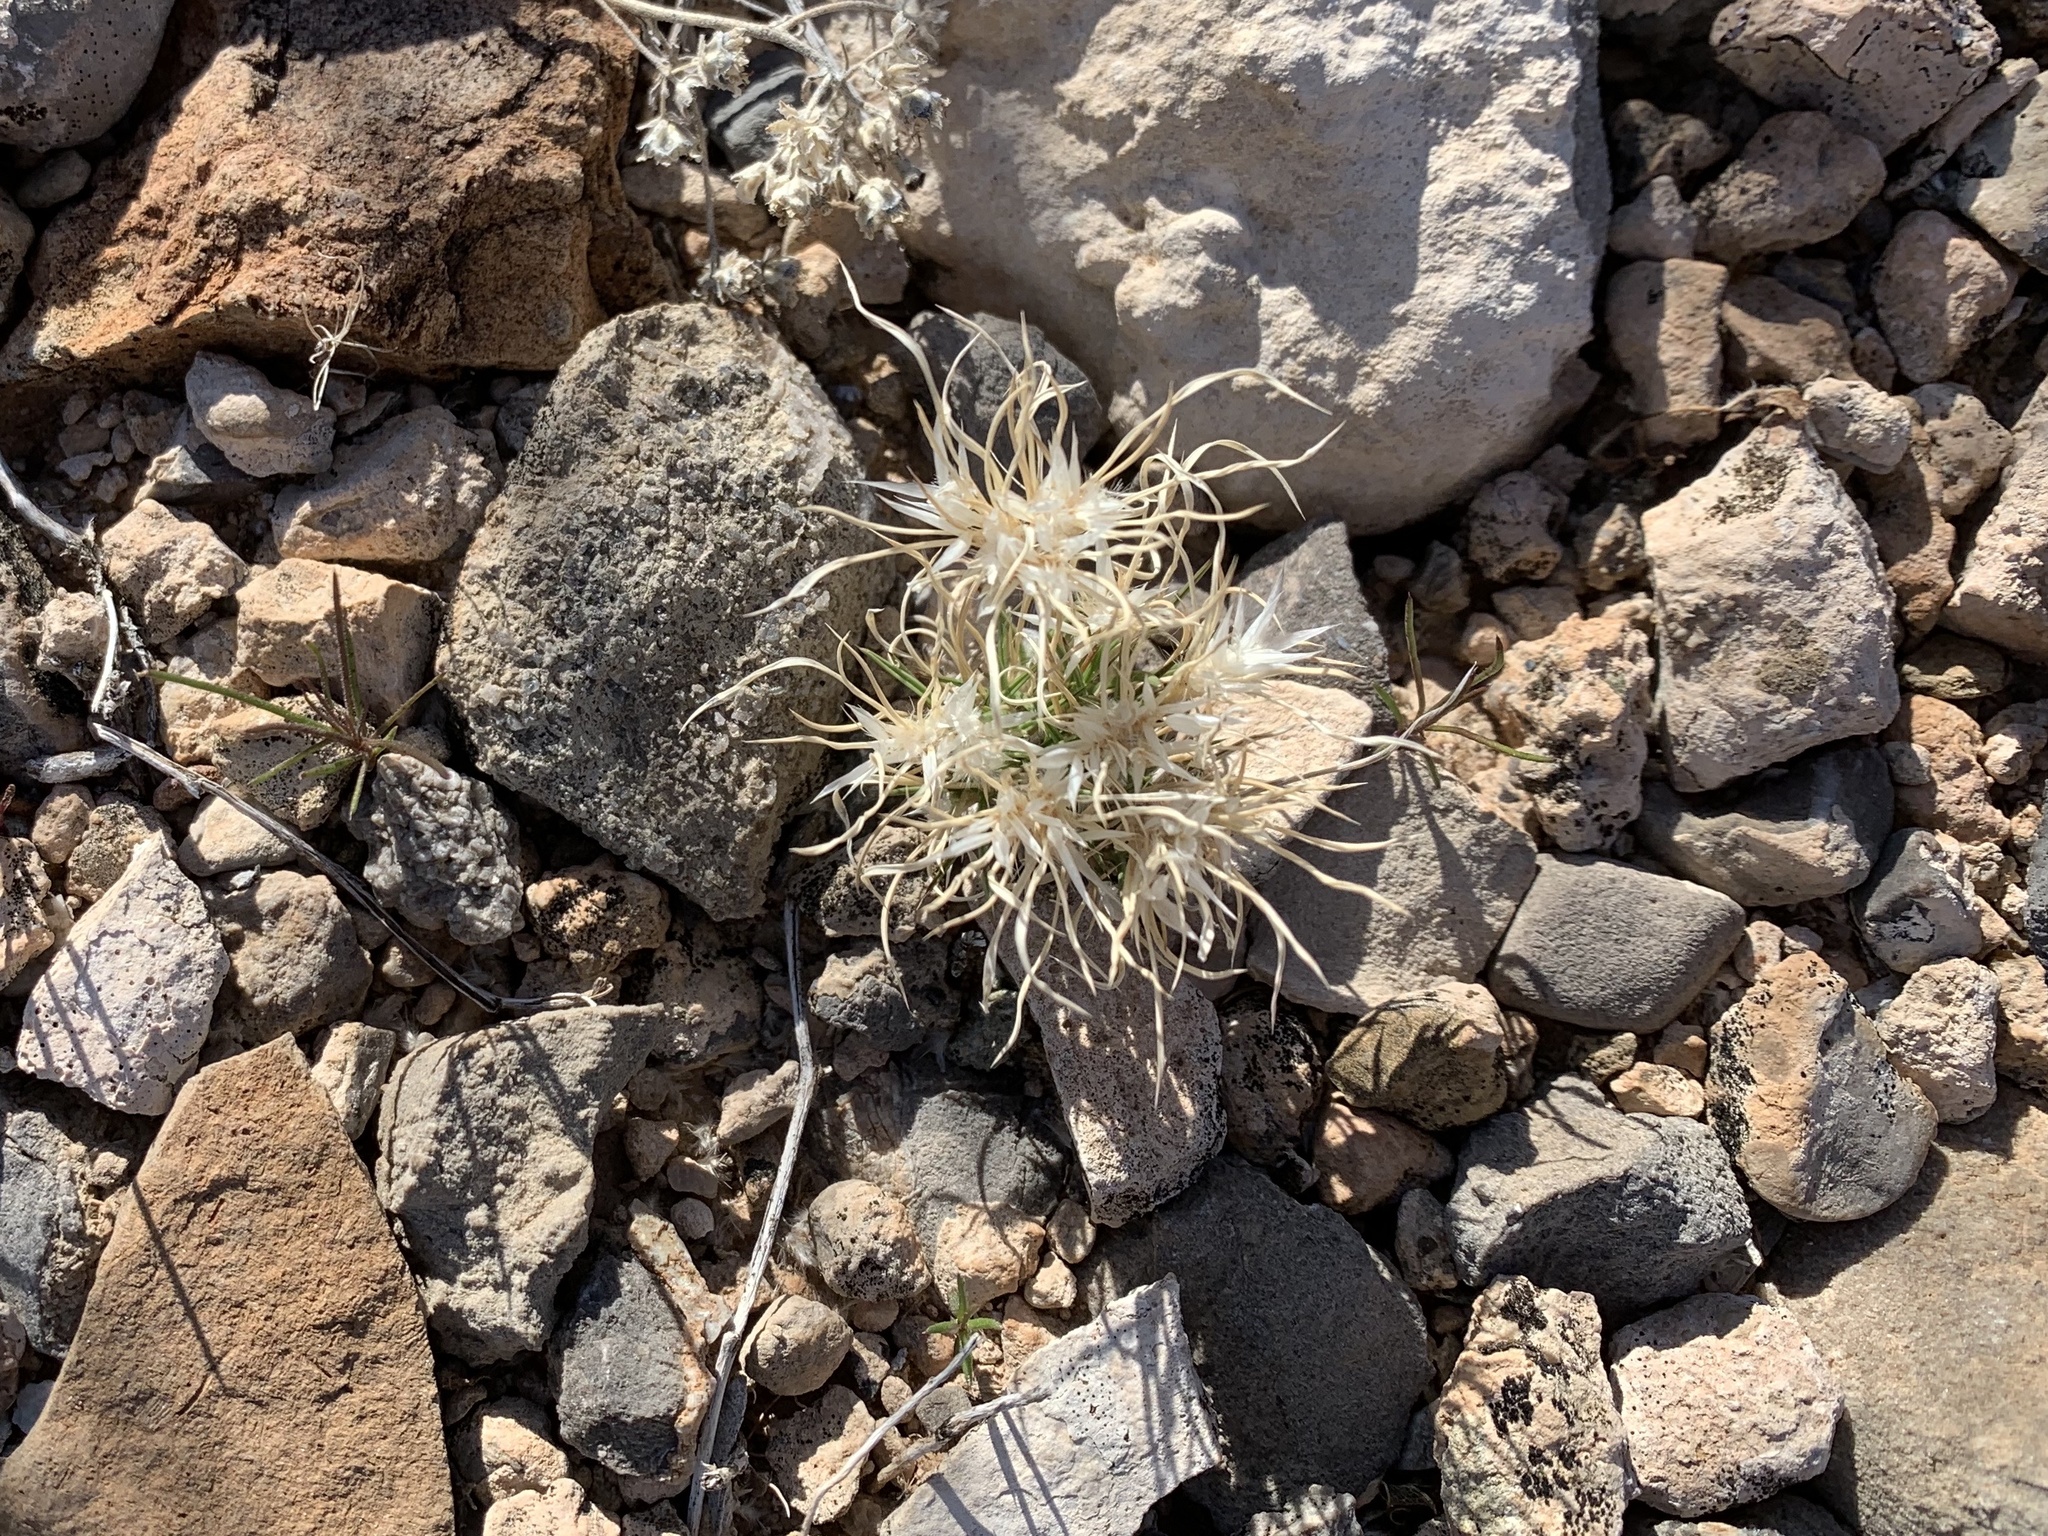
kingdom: Plantae
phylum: Tracheophyta
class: Liliopsida
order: Poales
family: Poaceae
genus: Dasyochloa
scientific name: Dasyochloa pulchella
